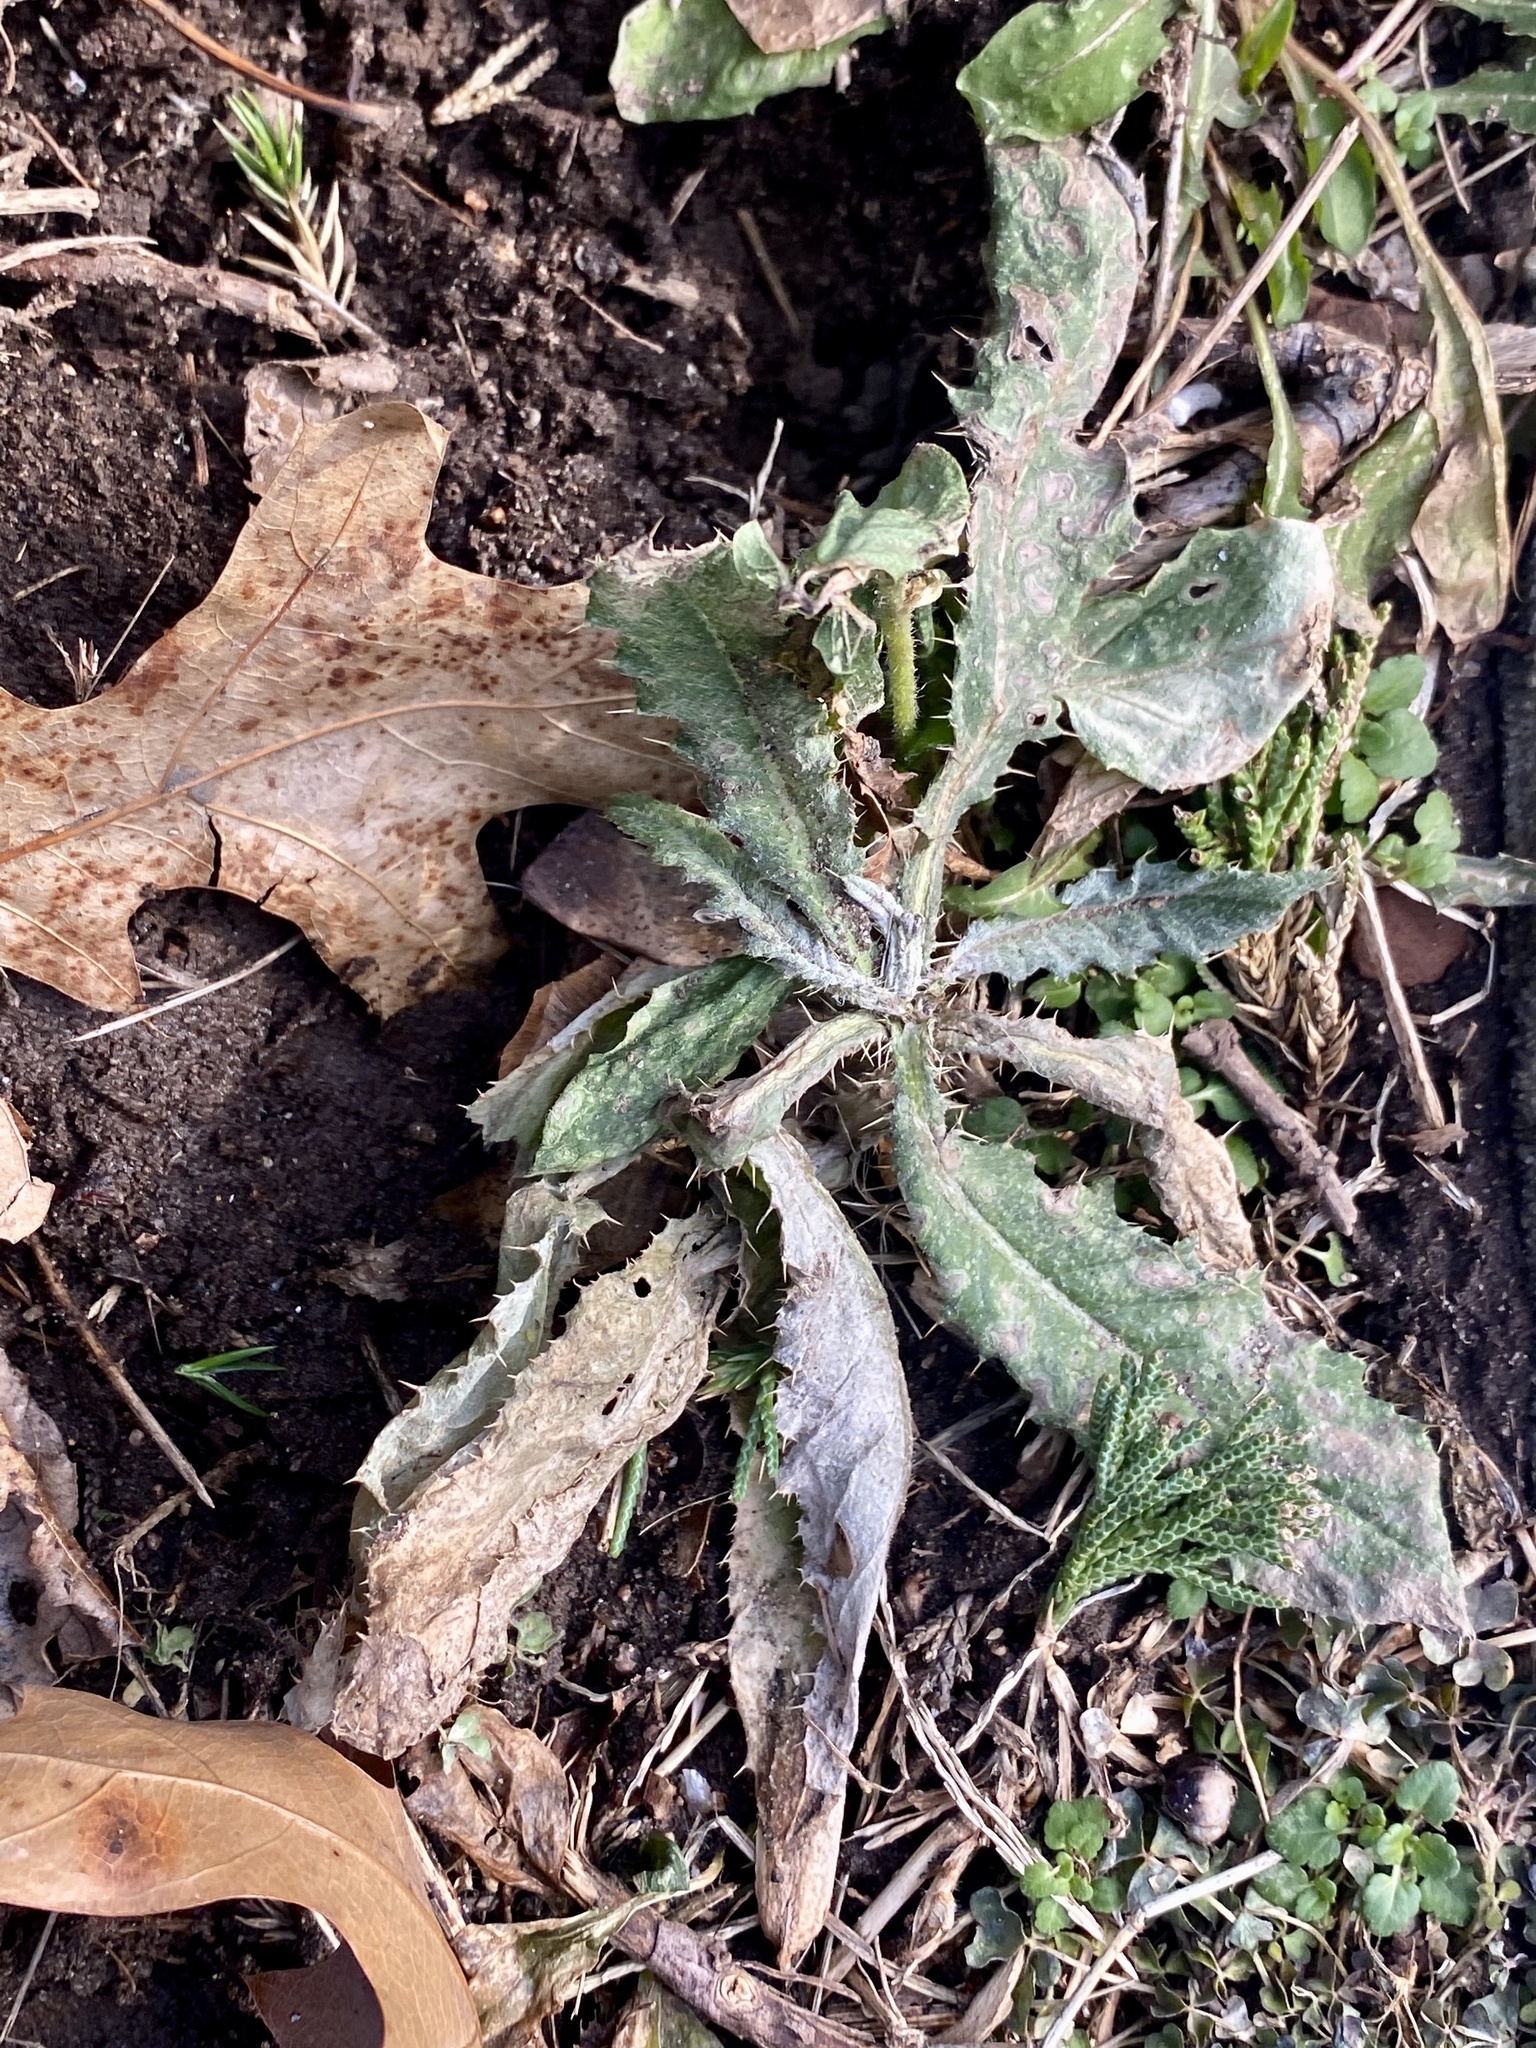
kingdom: Plantae
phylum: Tracheophyta
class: Magnoliopsida
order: Asterales
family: Asteraceae
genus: Cirsium
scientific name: Cirsium arvense
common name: Creeping thistle
